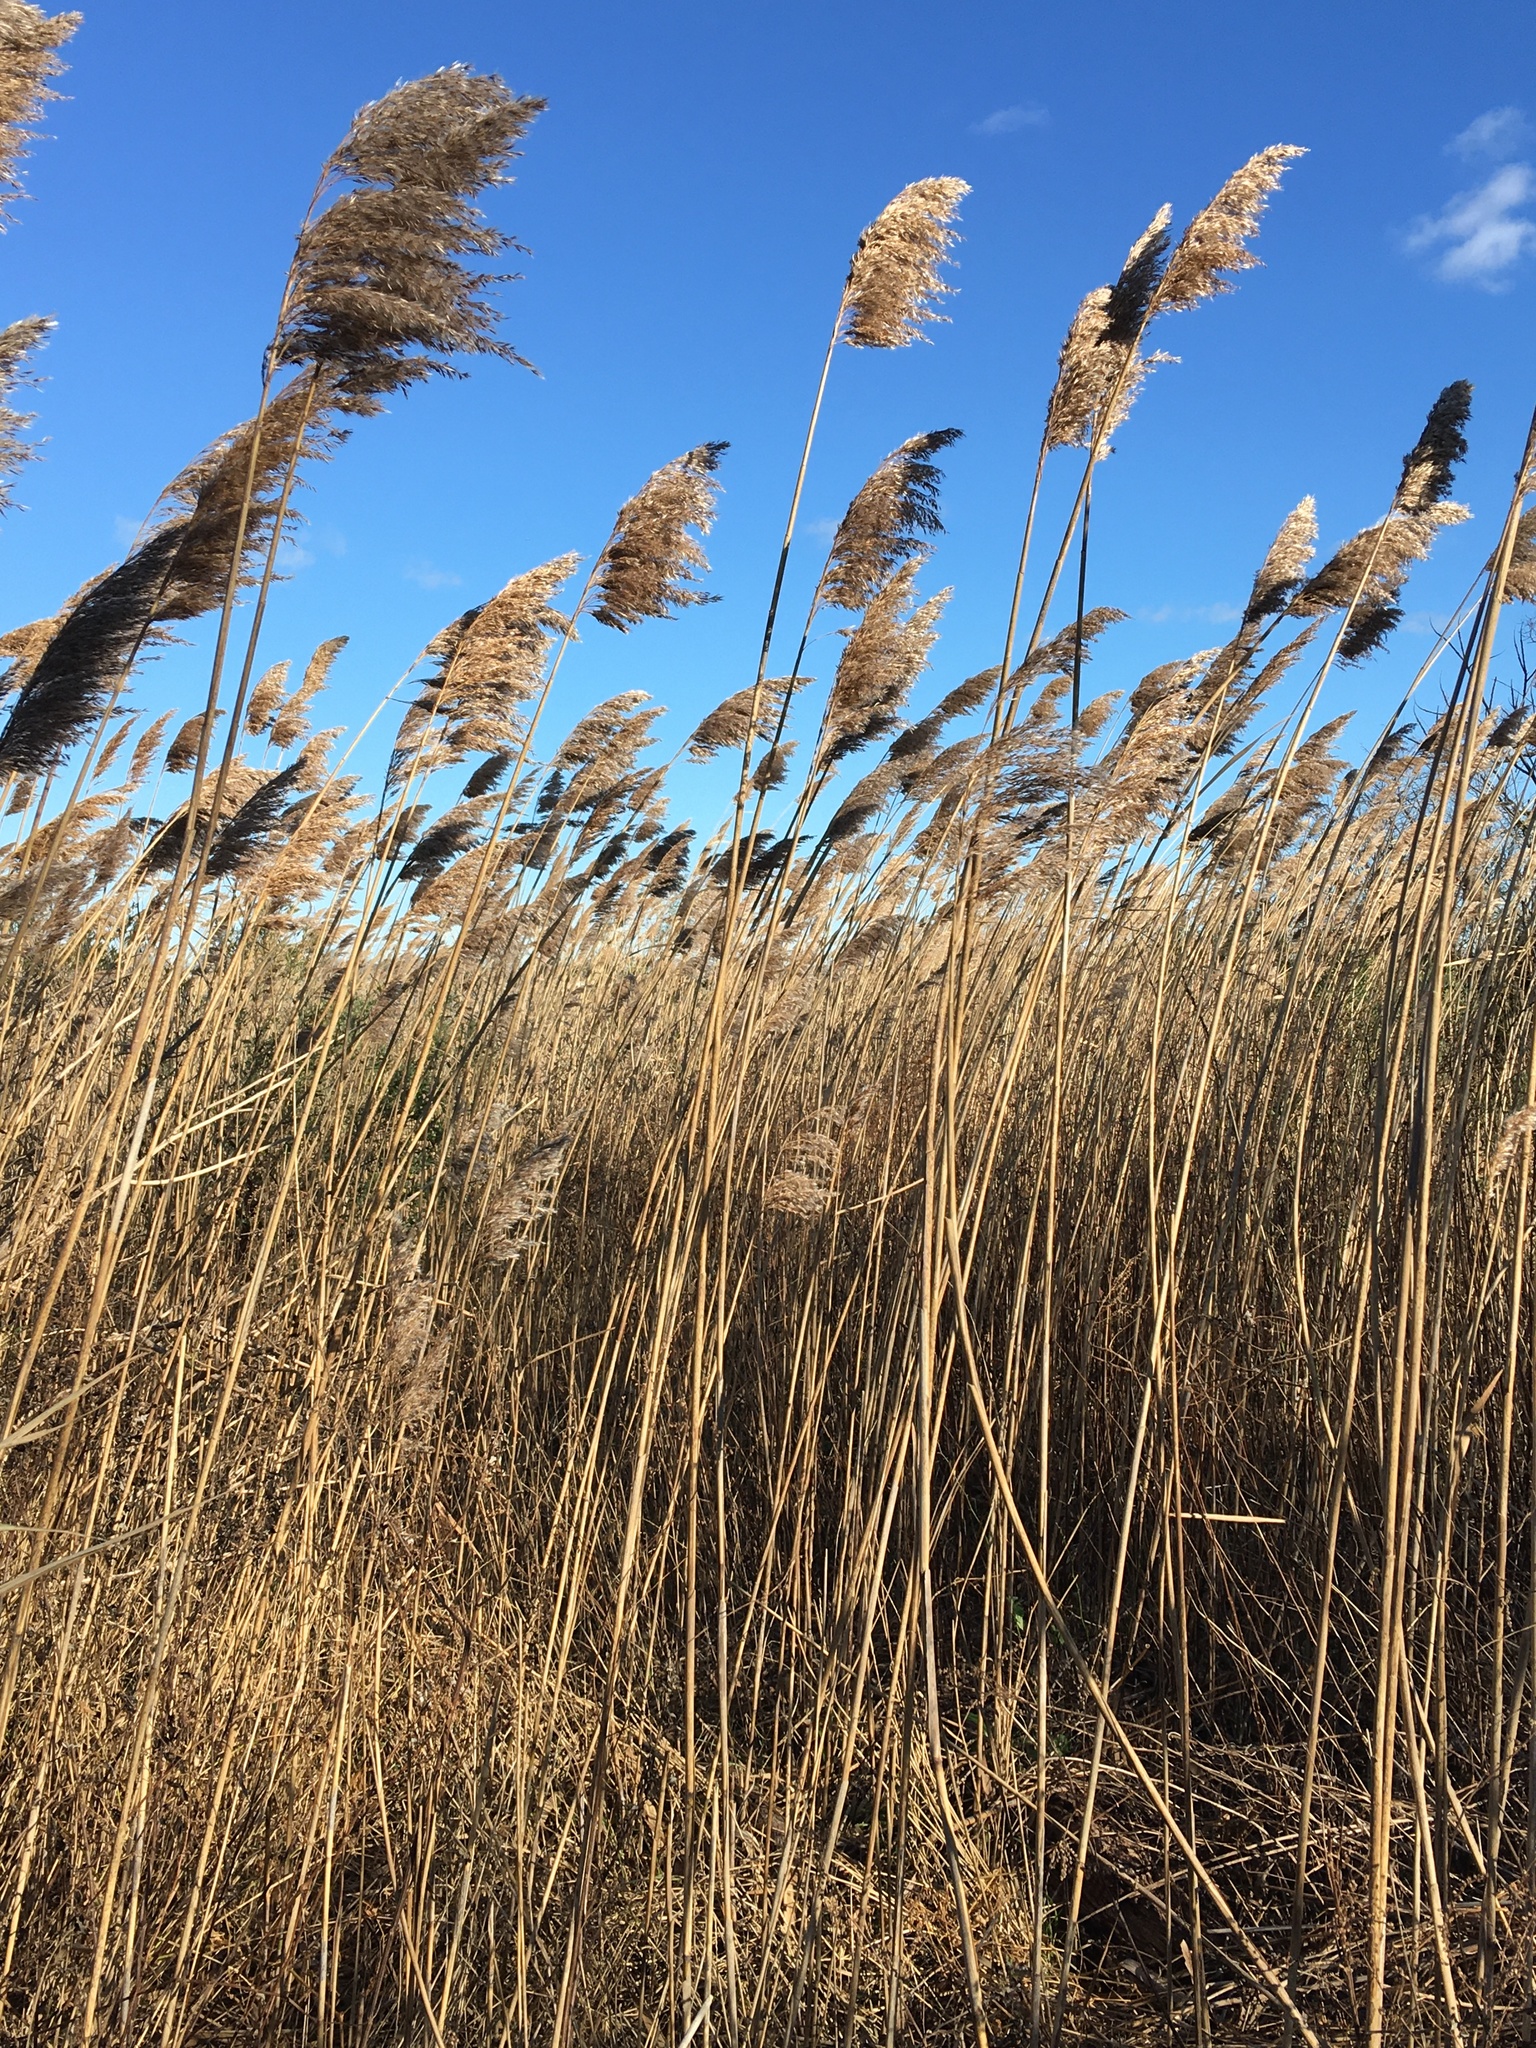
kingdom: Plantae
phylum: Tracheophyta
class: Liliopsida
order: Poales
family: Poaceae
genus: Phragmites
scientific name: Phragmites australis
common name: Common reed
